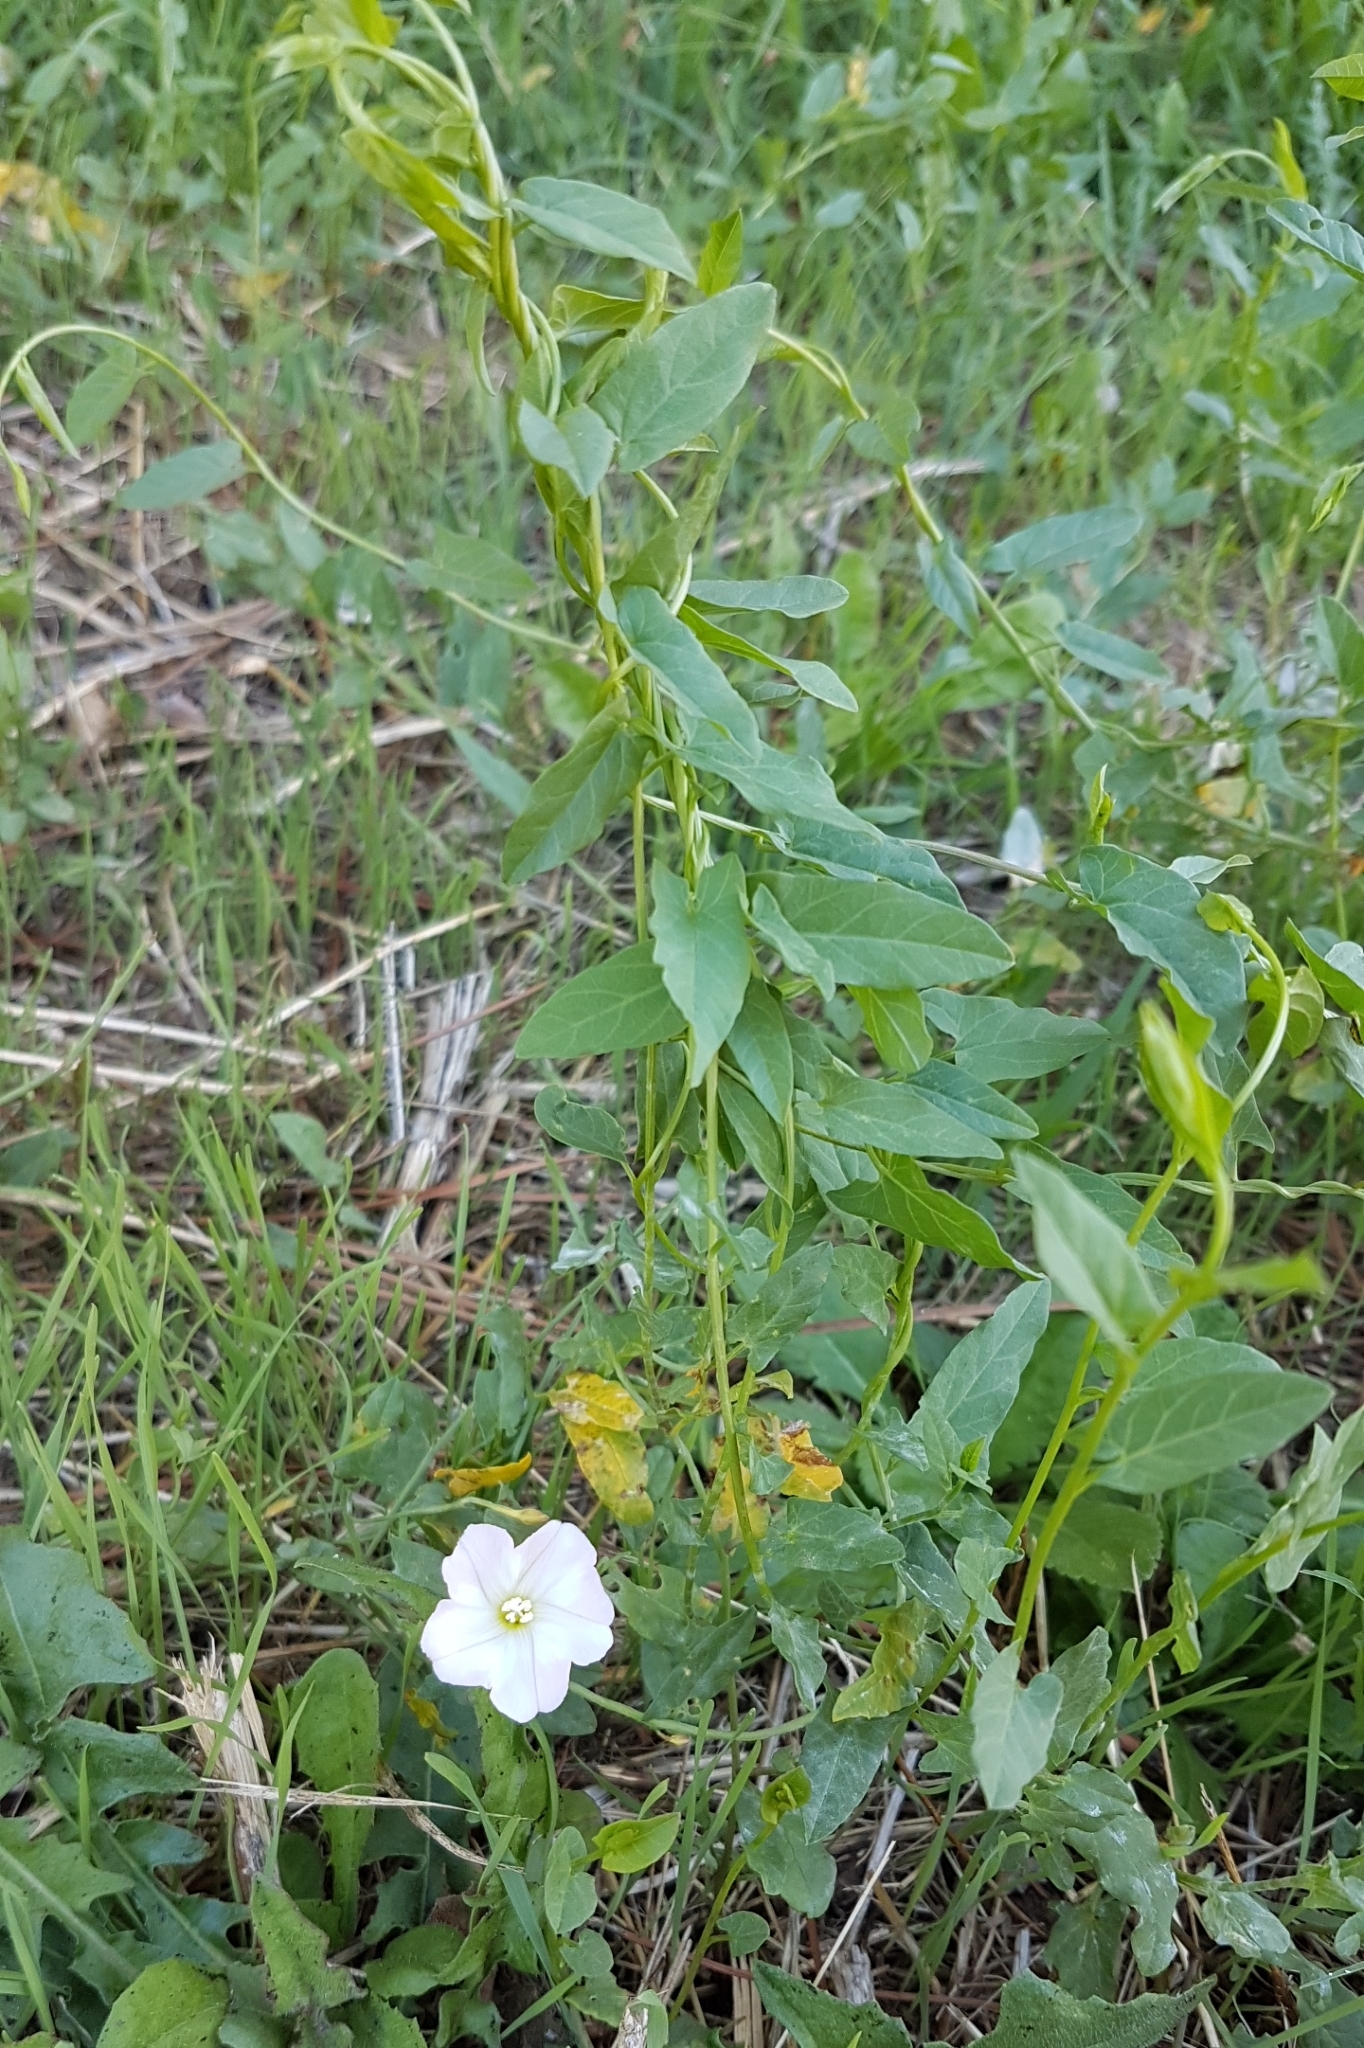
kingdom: Plantae
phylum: Tracheophyta
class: Magnoliopsida
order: Solanales
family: Convolvulaceae
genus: Convolvulus
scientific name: Convolvulus arvensis
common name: Field bindweed
